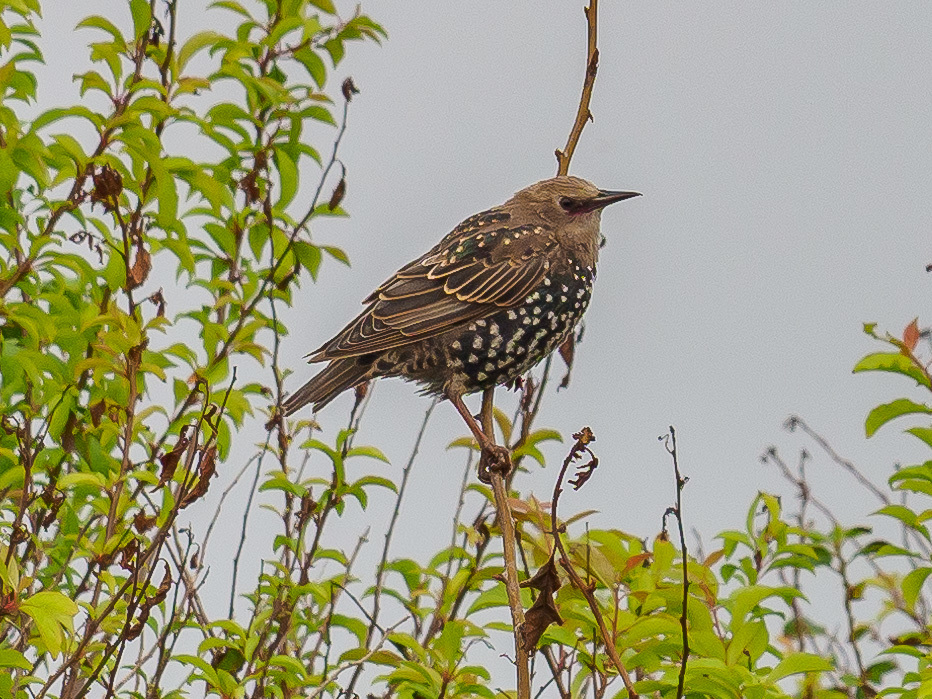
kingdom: Animalia
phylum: Chordata
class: Aves
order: Passeriformes
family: Sturnidae
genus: Sturnus
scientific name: Sturnus vulgaris
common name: Common starling
